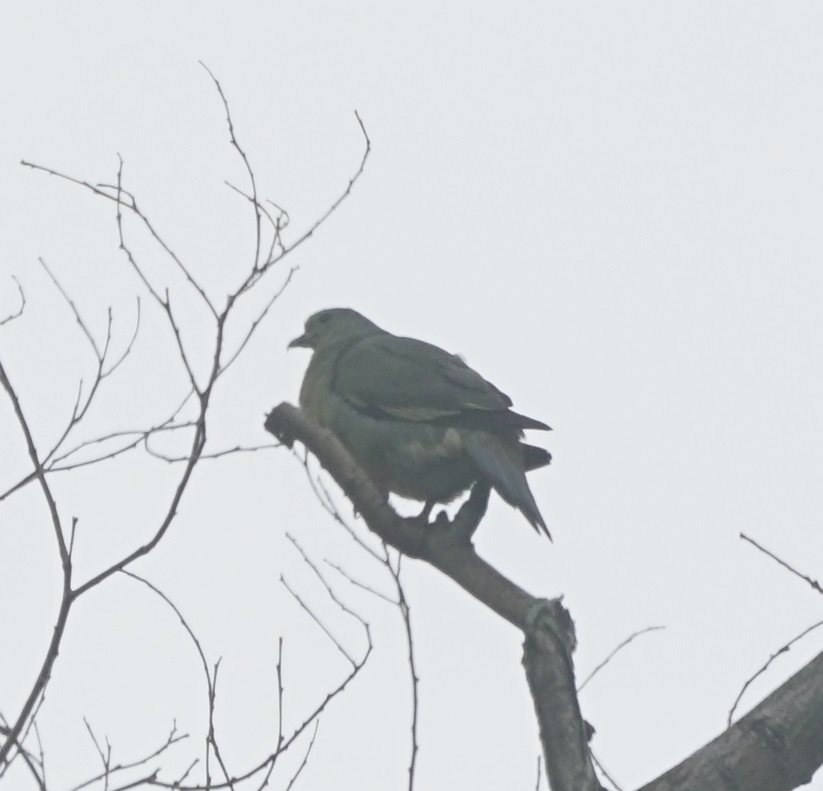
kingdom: Animalia
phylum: Chordata
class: Aves
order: Columbiformes
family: Columbidae
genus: Treron
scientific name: Treron vernans
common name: Pink-necked green pigeon
